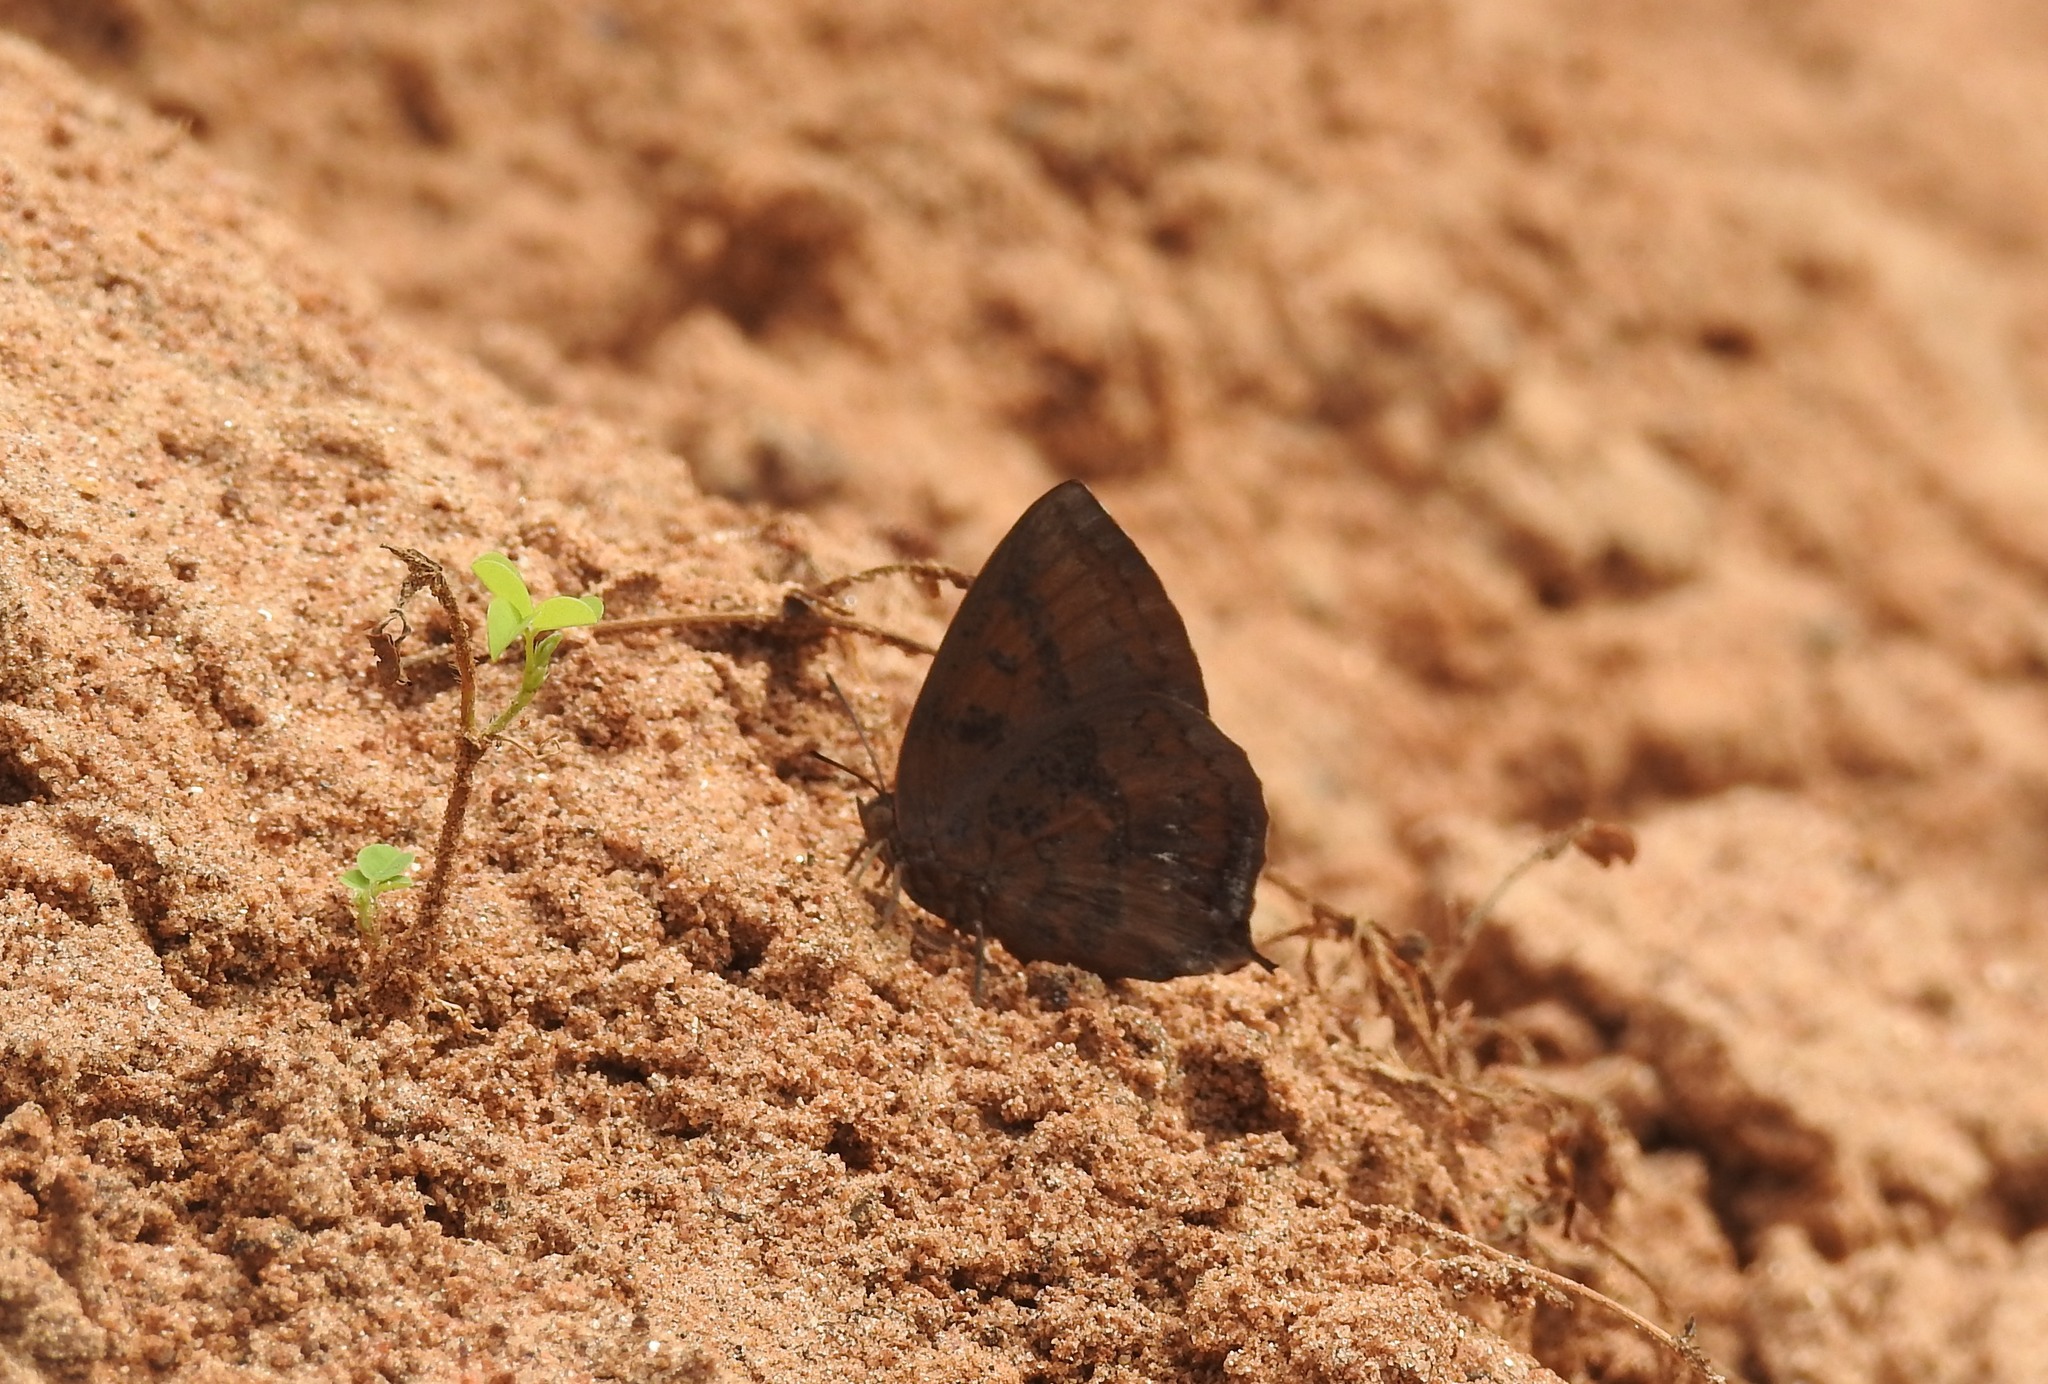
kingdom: Animalia
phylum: Arthropoda
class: Insecta
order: Lepidoptera
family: Lycaenidae
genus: Amblypodia
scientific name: Amblypodia anita
